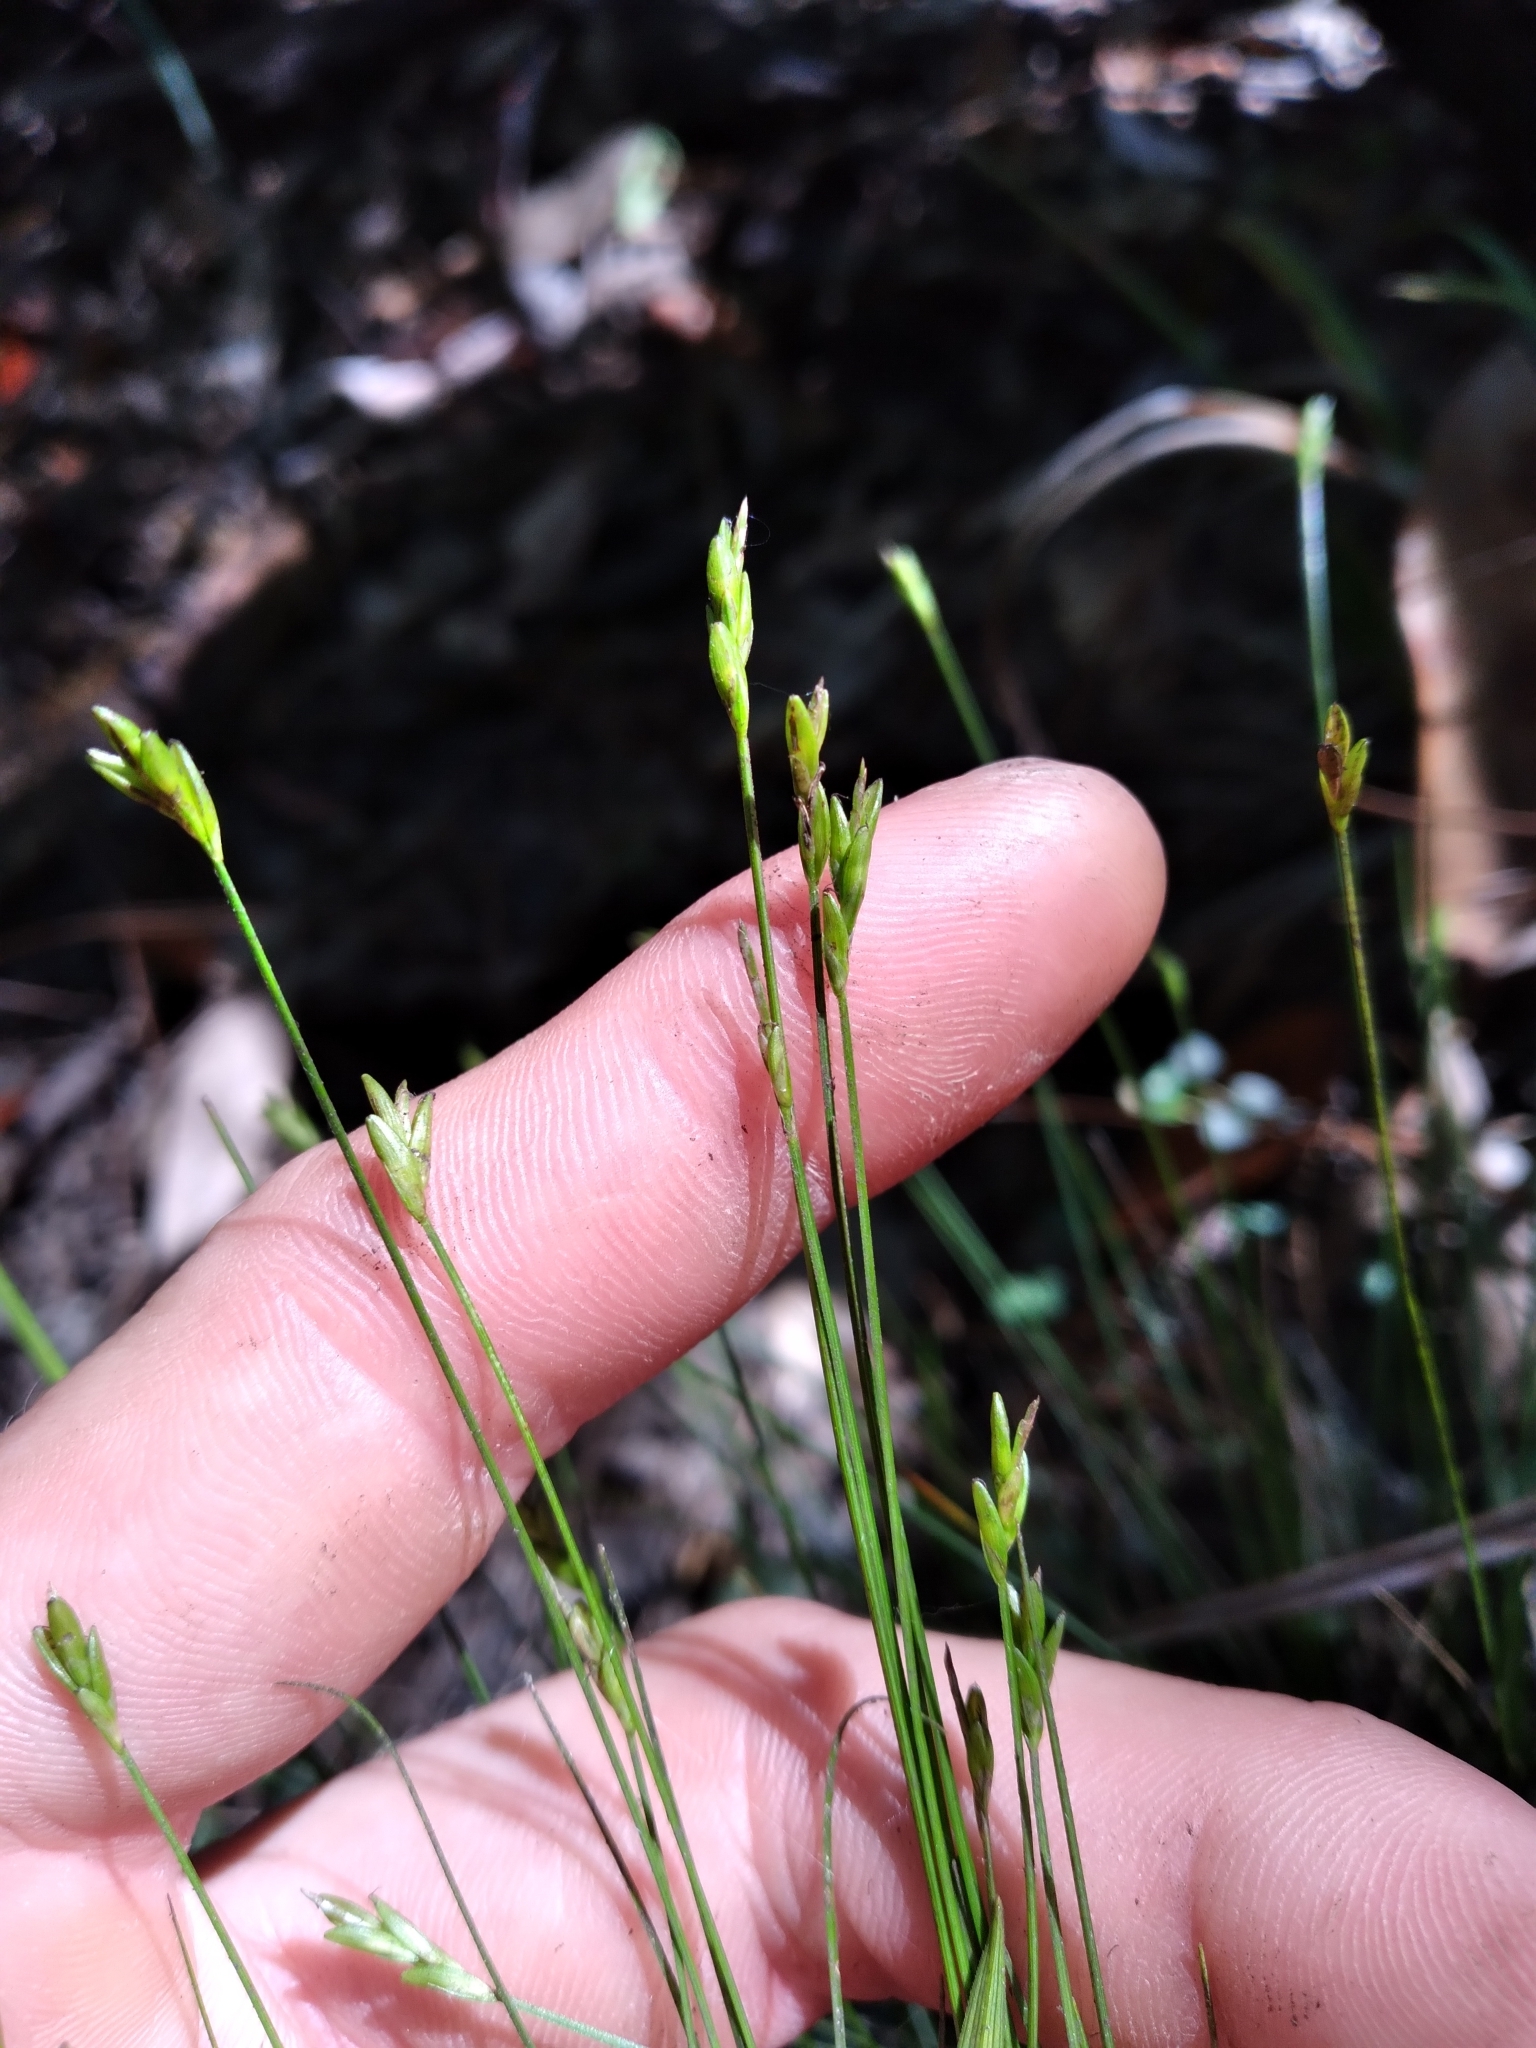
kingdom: Plantae
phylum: Tracheophyta
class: Liliopsida
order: Poales
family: Cyperaceae
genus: Carex
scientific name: Carex leptalea
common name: Bristly-stalked sedge
